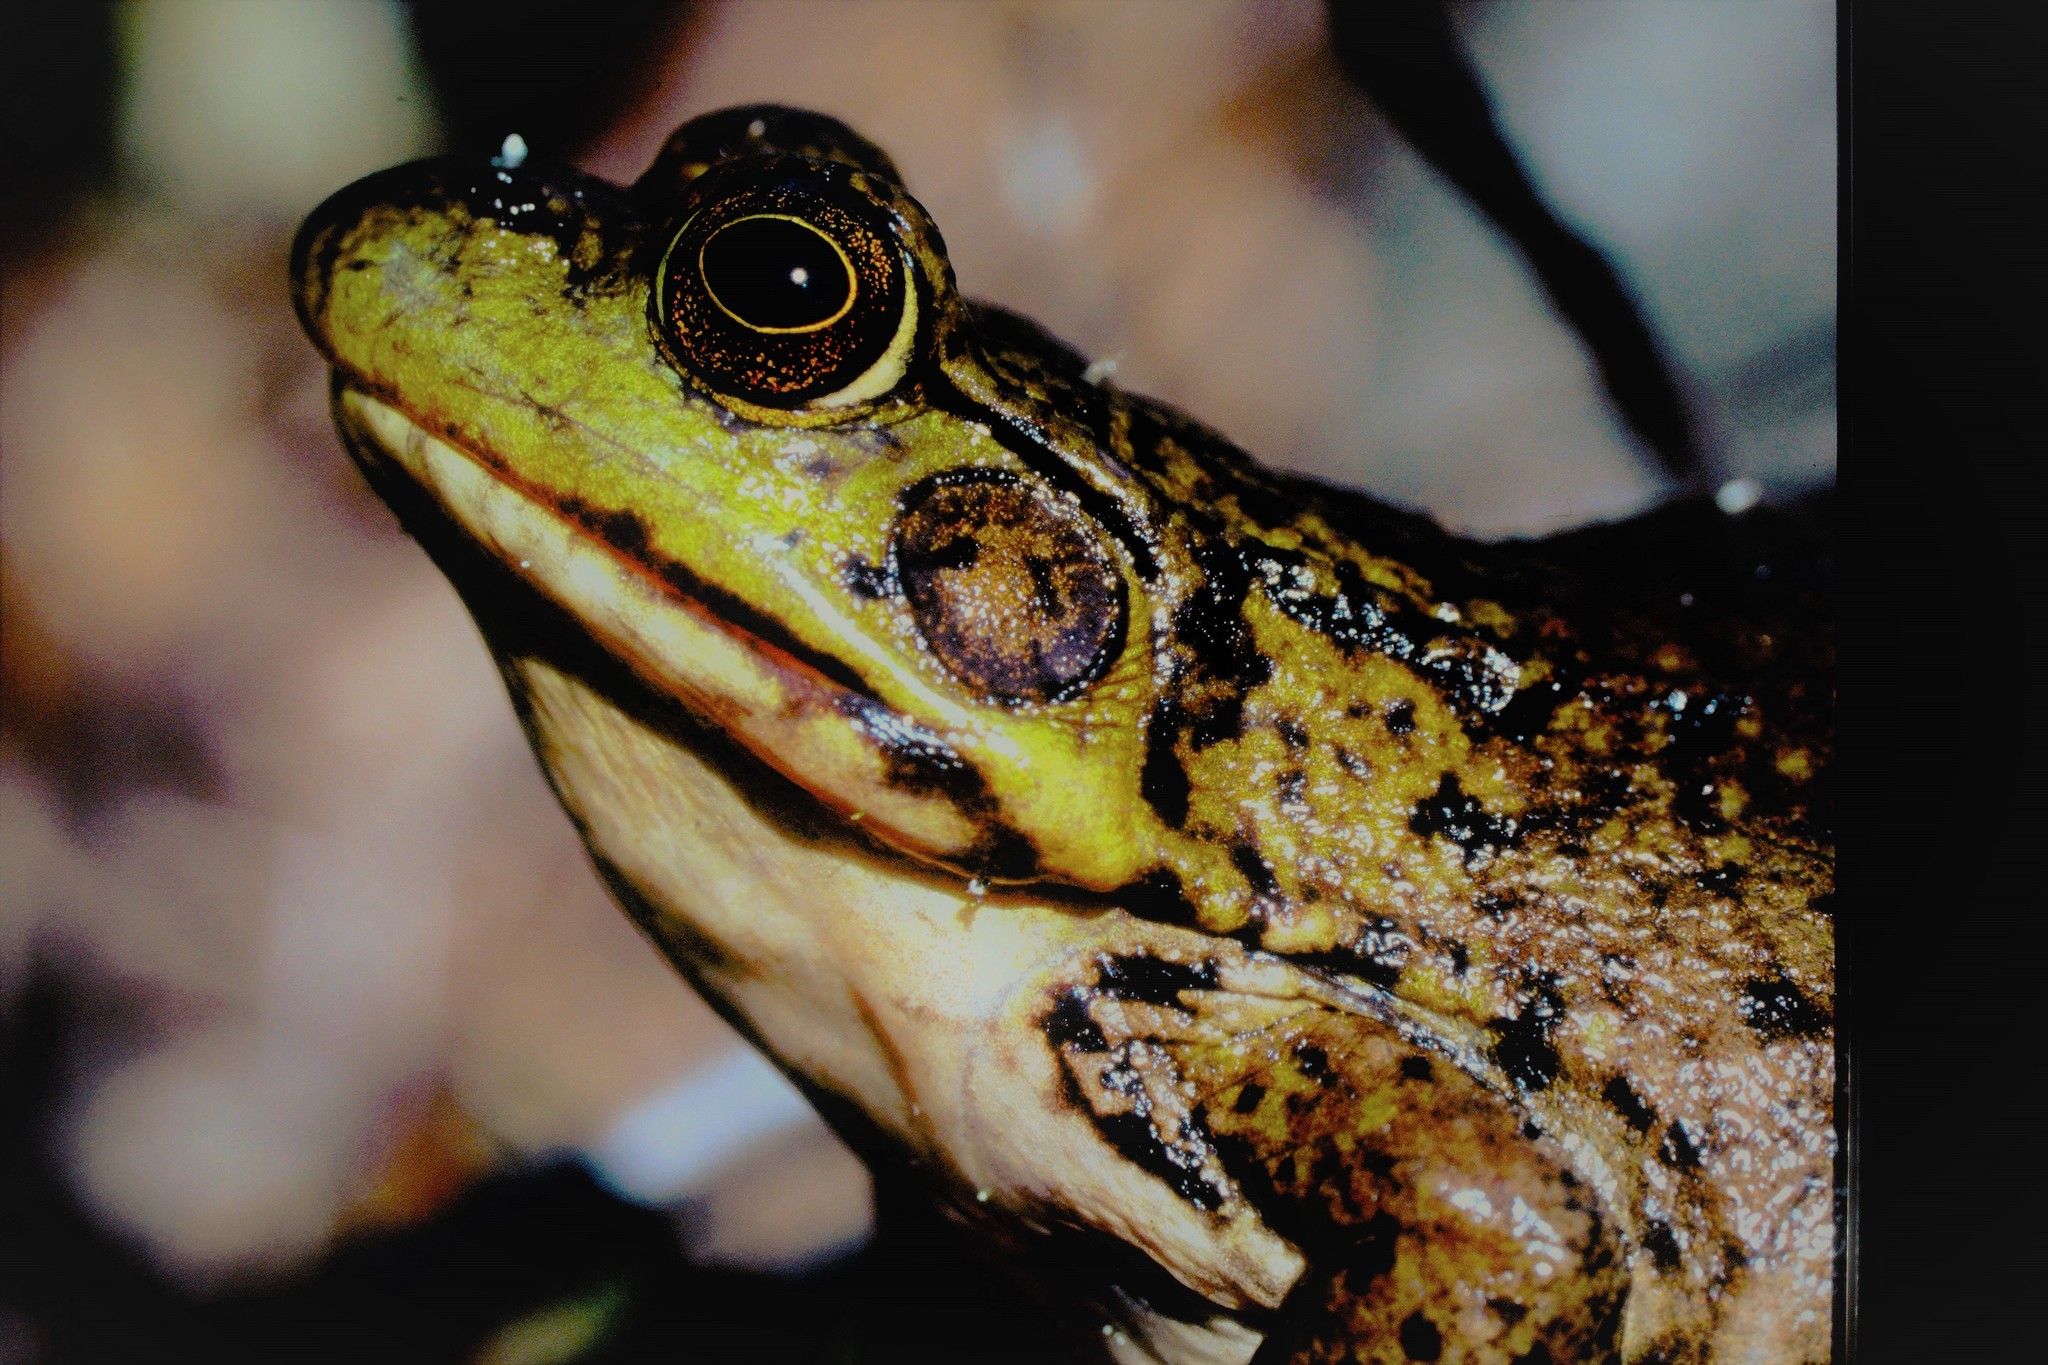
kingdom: Animalia
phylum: Chordata
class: Amphibia
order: Anura
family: Ranidae
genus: Lithobates
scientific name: Lithobates clamitans
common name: Green frog
